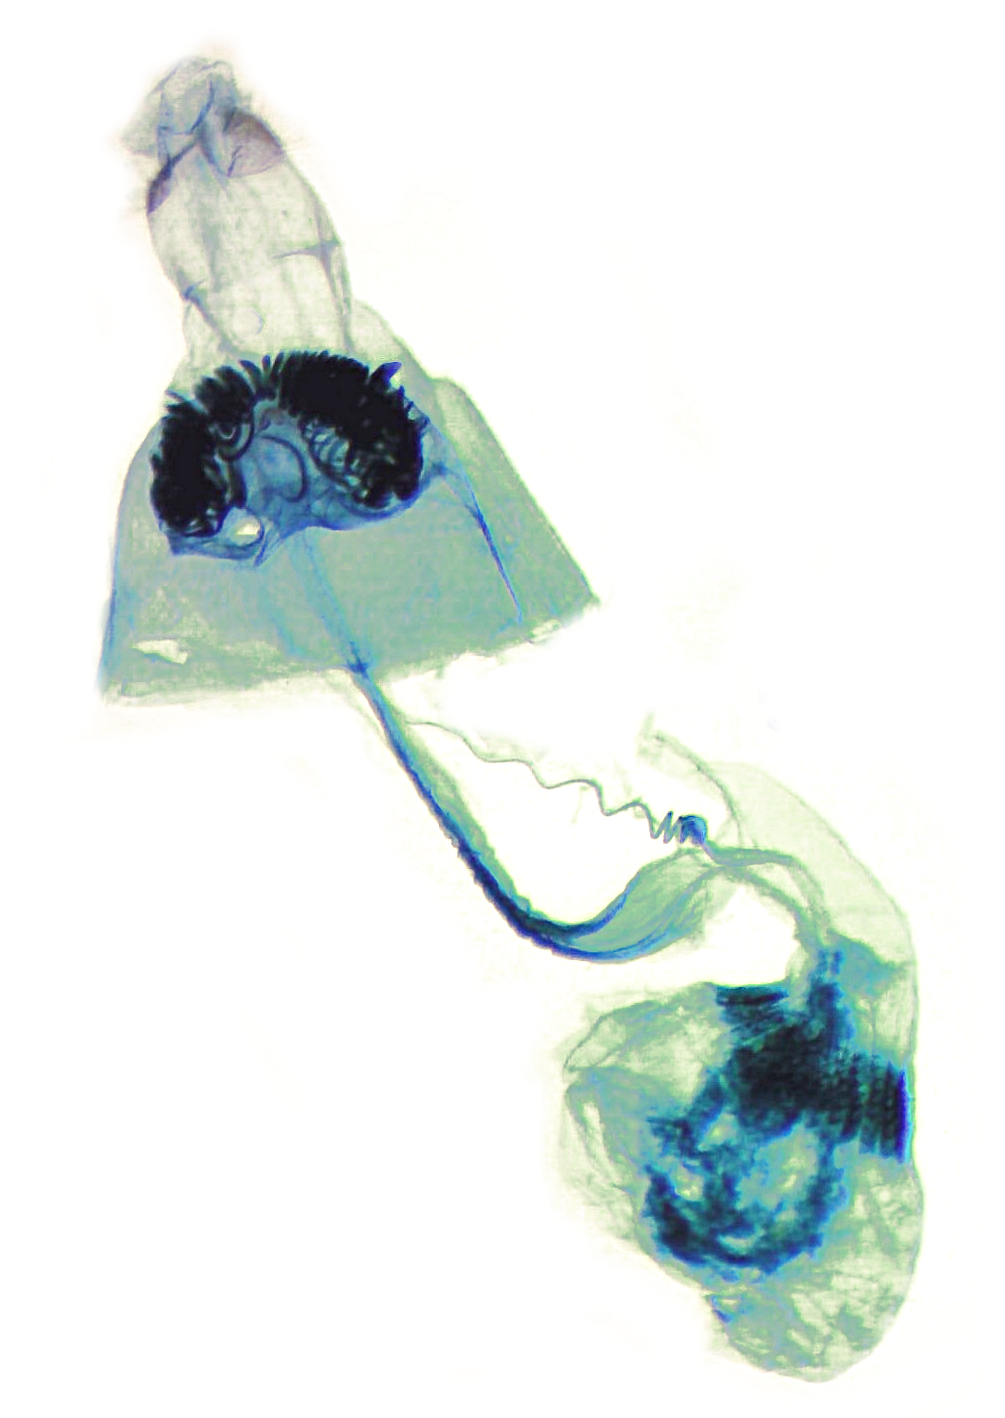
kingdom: Animalia
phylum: Arthropoda
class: Insecta
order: Lepidoptera
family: Bucculatricidae
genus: Bucculatrix
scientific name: Bucculatrix packardella
